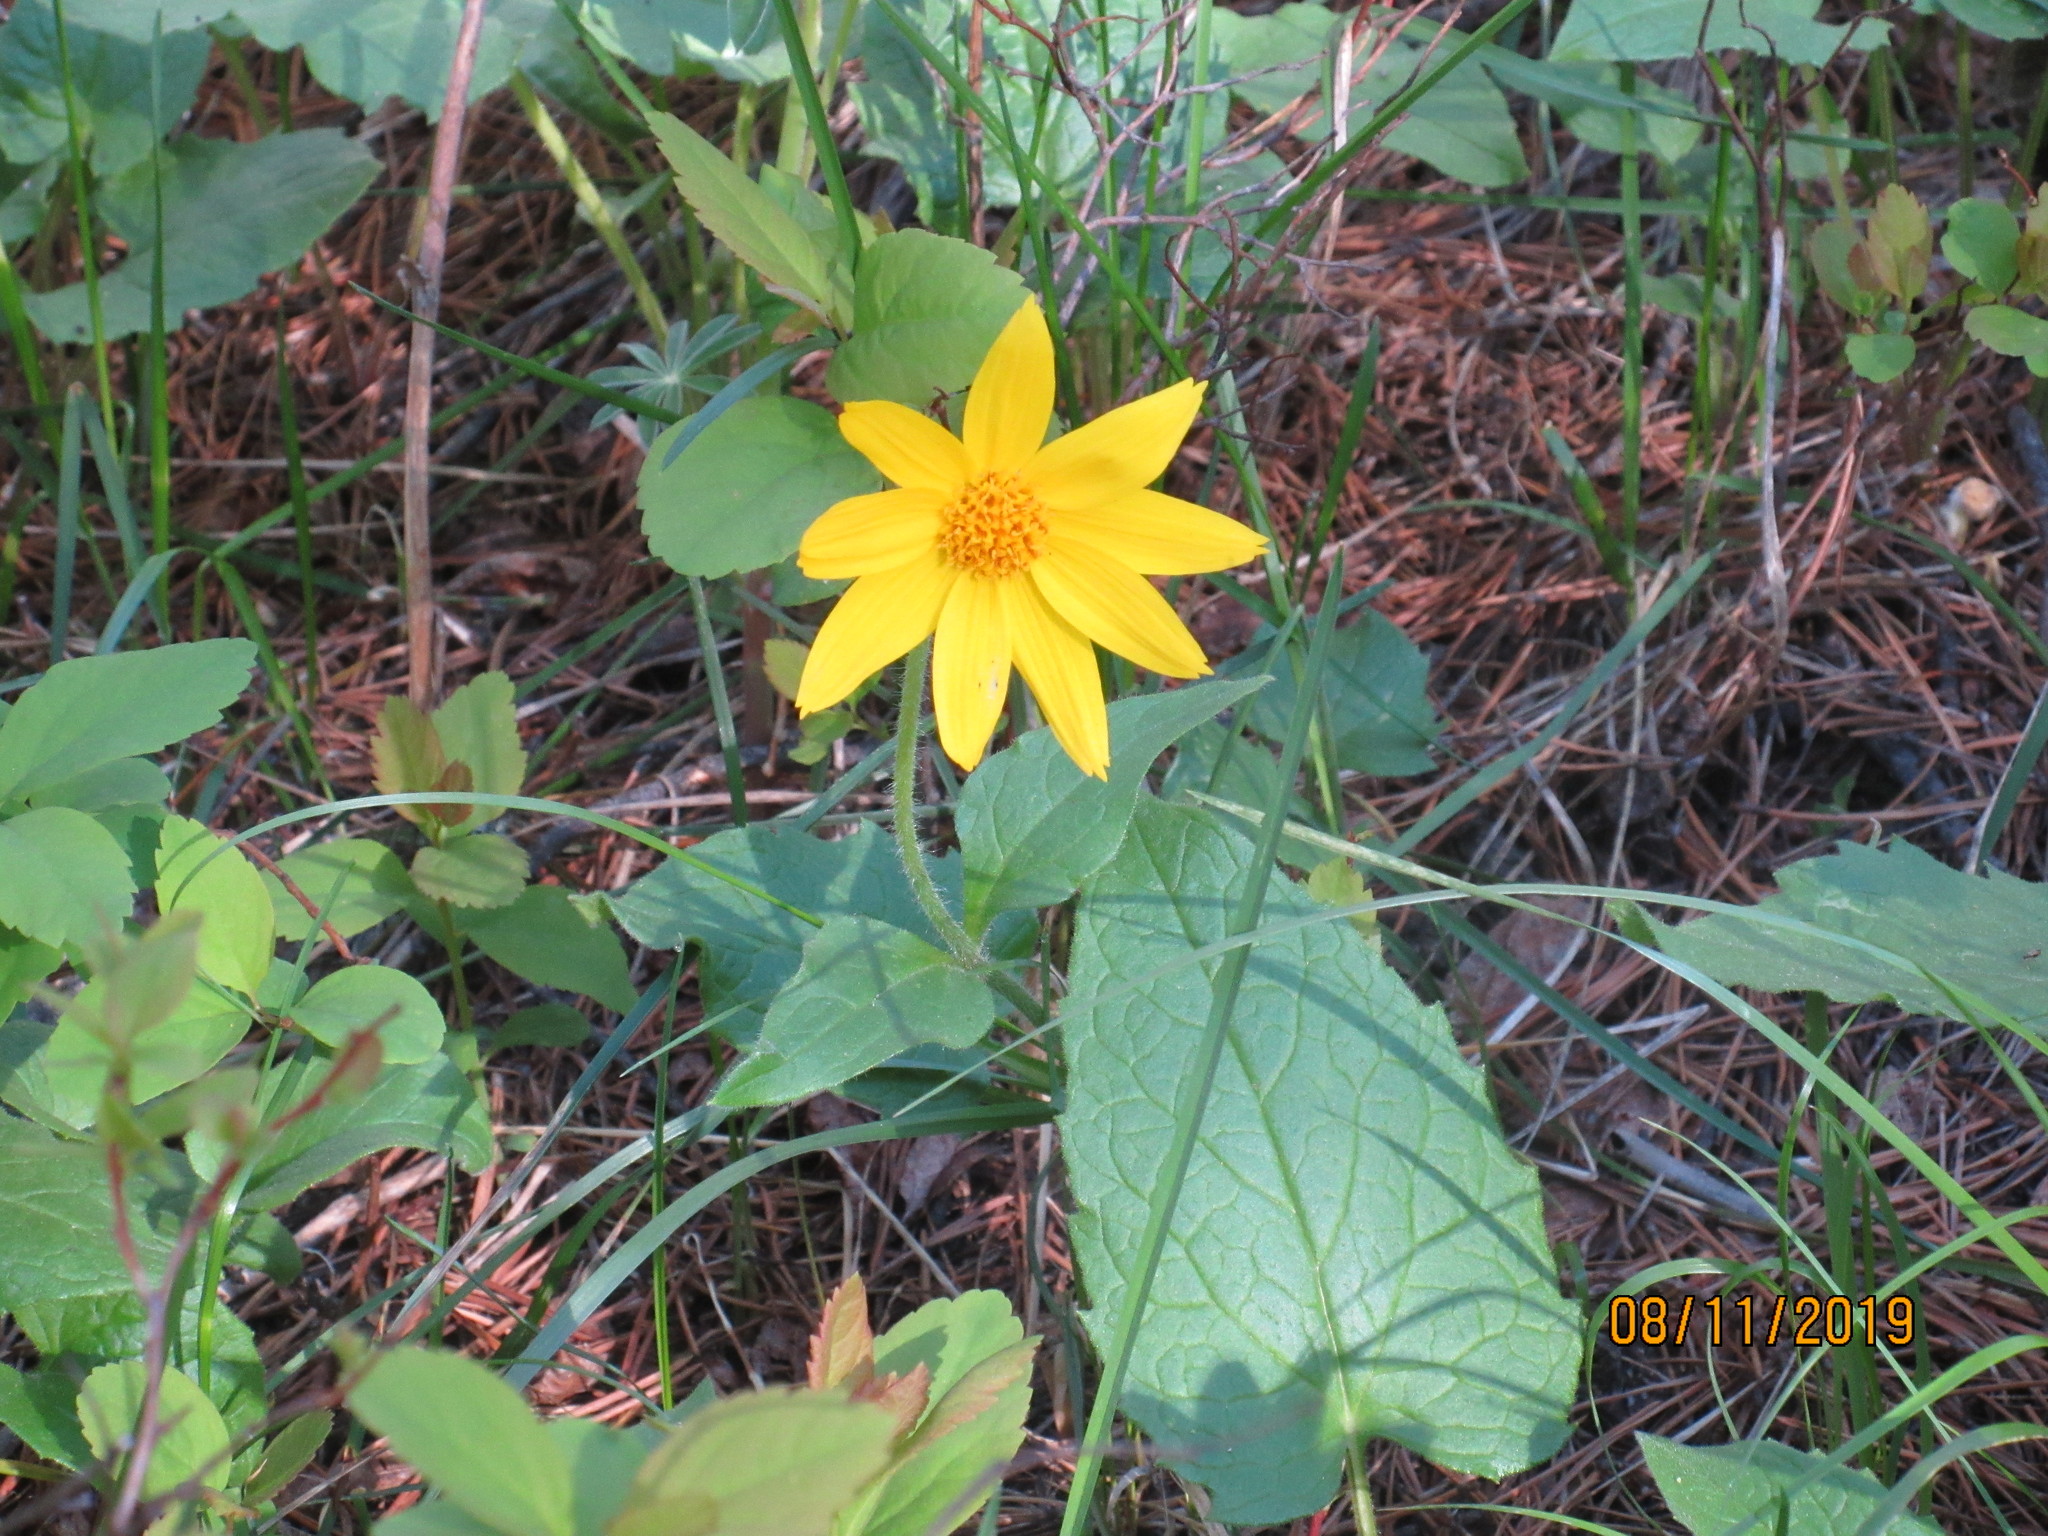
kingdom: Plantae
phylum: Tracheophyta
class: Magnoliopsida
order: Asterales
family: Asteraceae
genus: Arnica
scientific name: Arnica cordifolia
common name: Heart-leaf arnica
